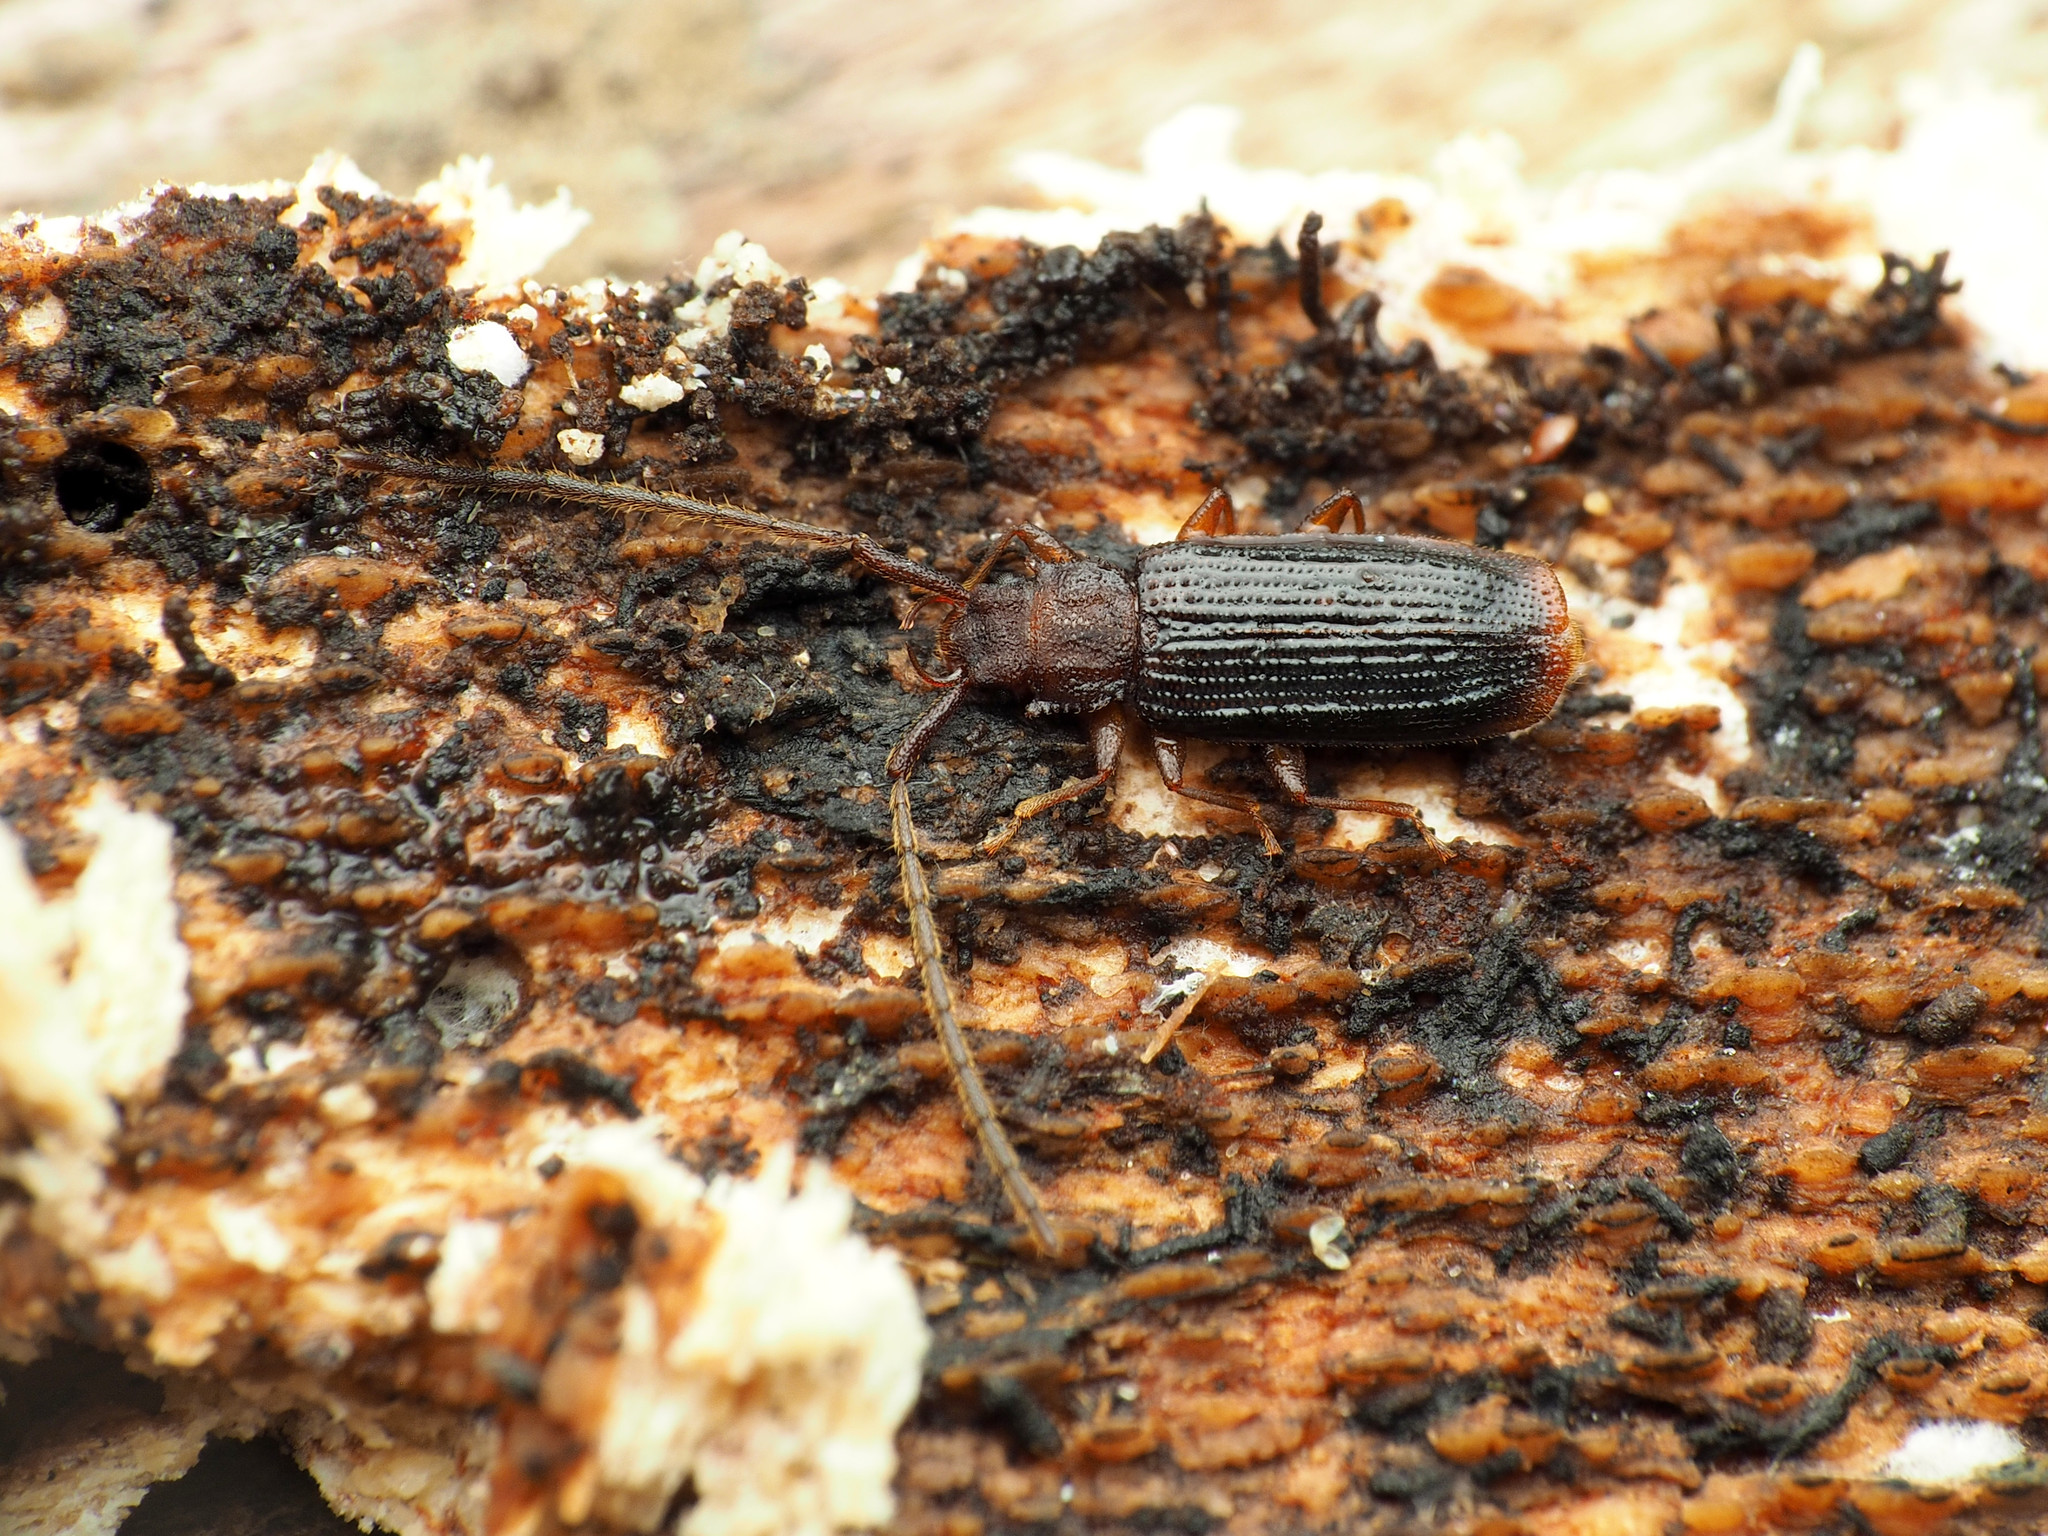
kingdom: Animalia
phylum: Arthropoda
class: Insecta
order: Coleoptera
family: Silvanidae
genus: Uleiota
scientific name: Uleiota dubia
